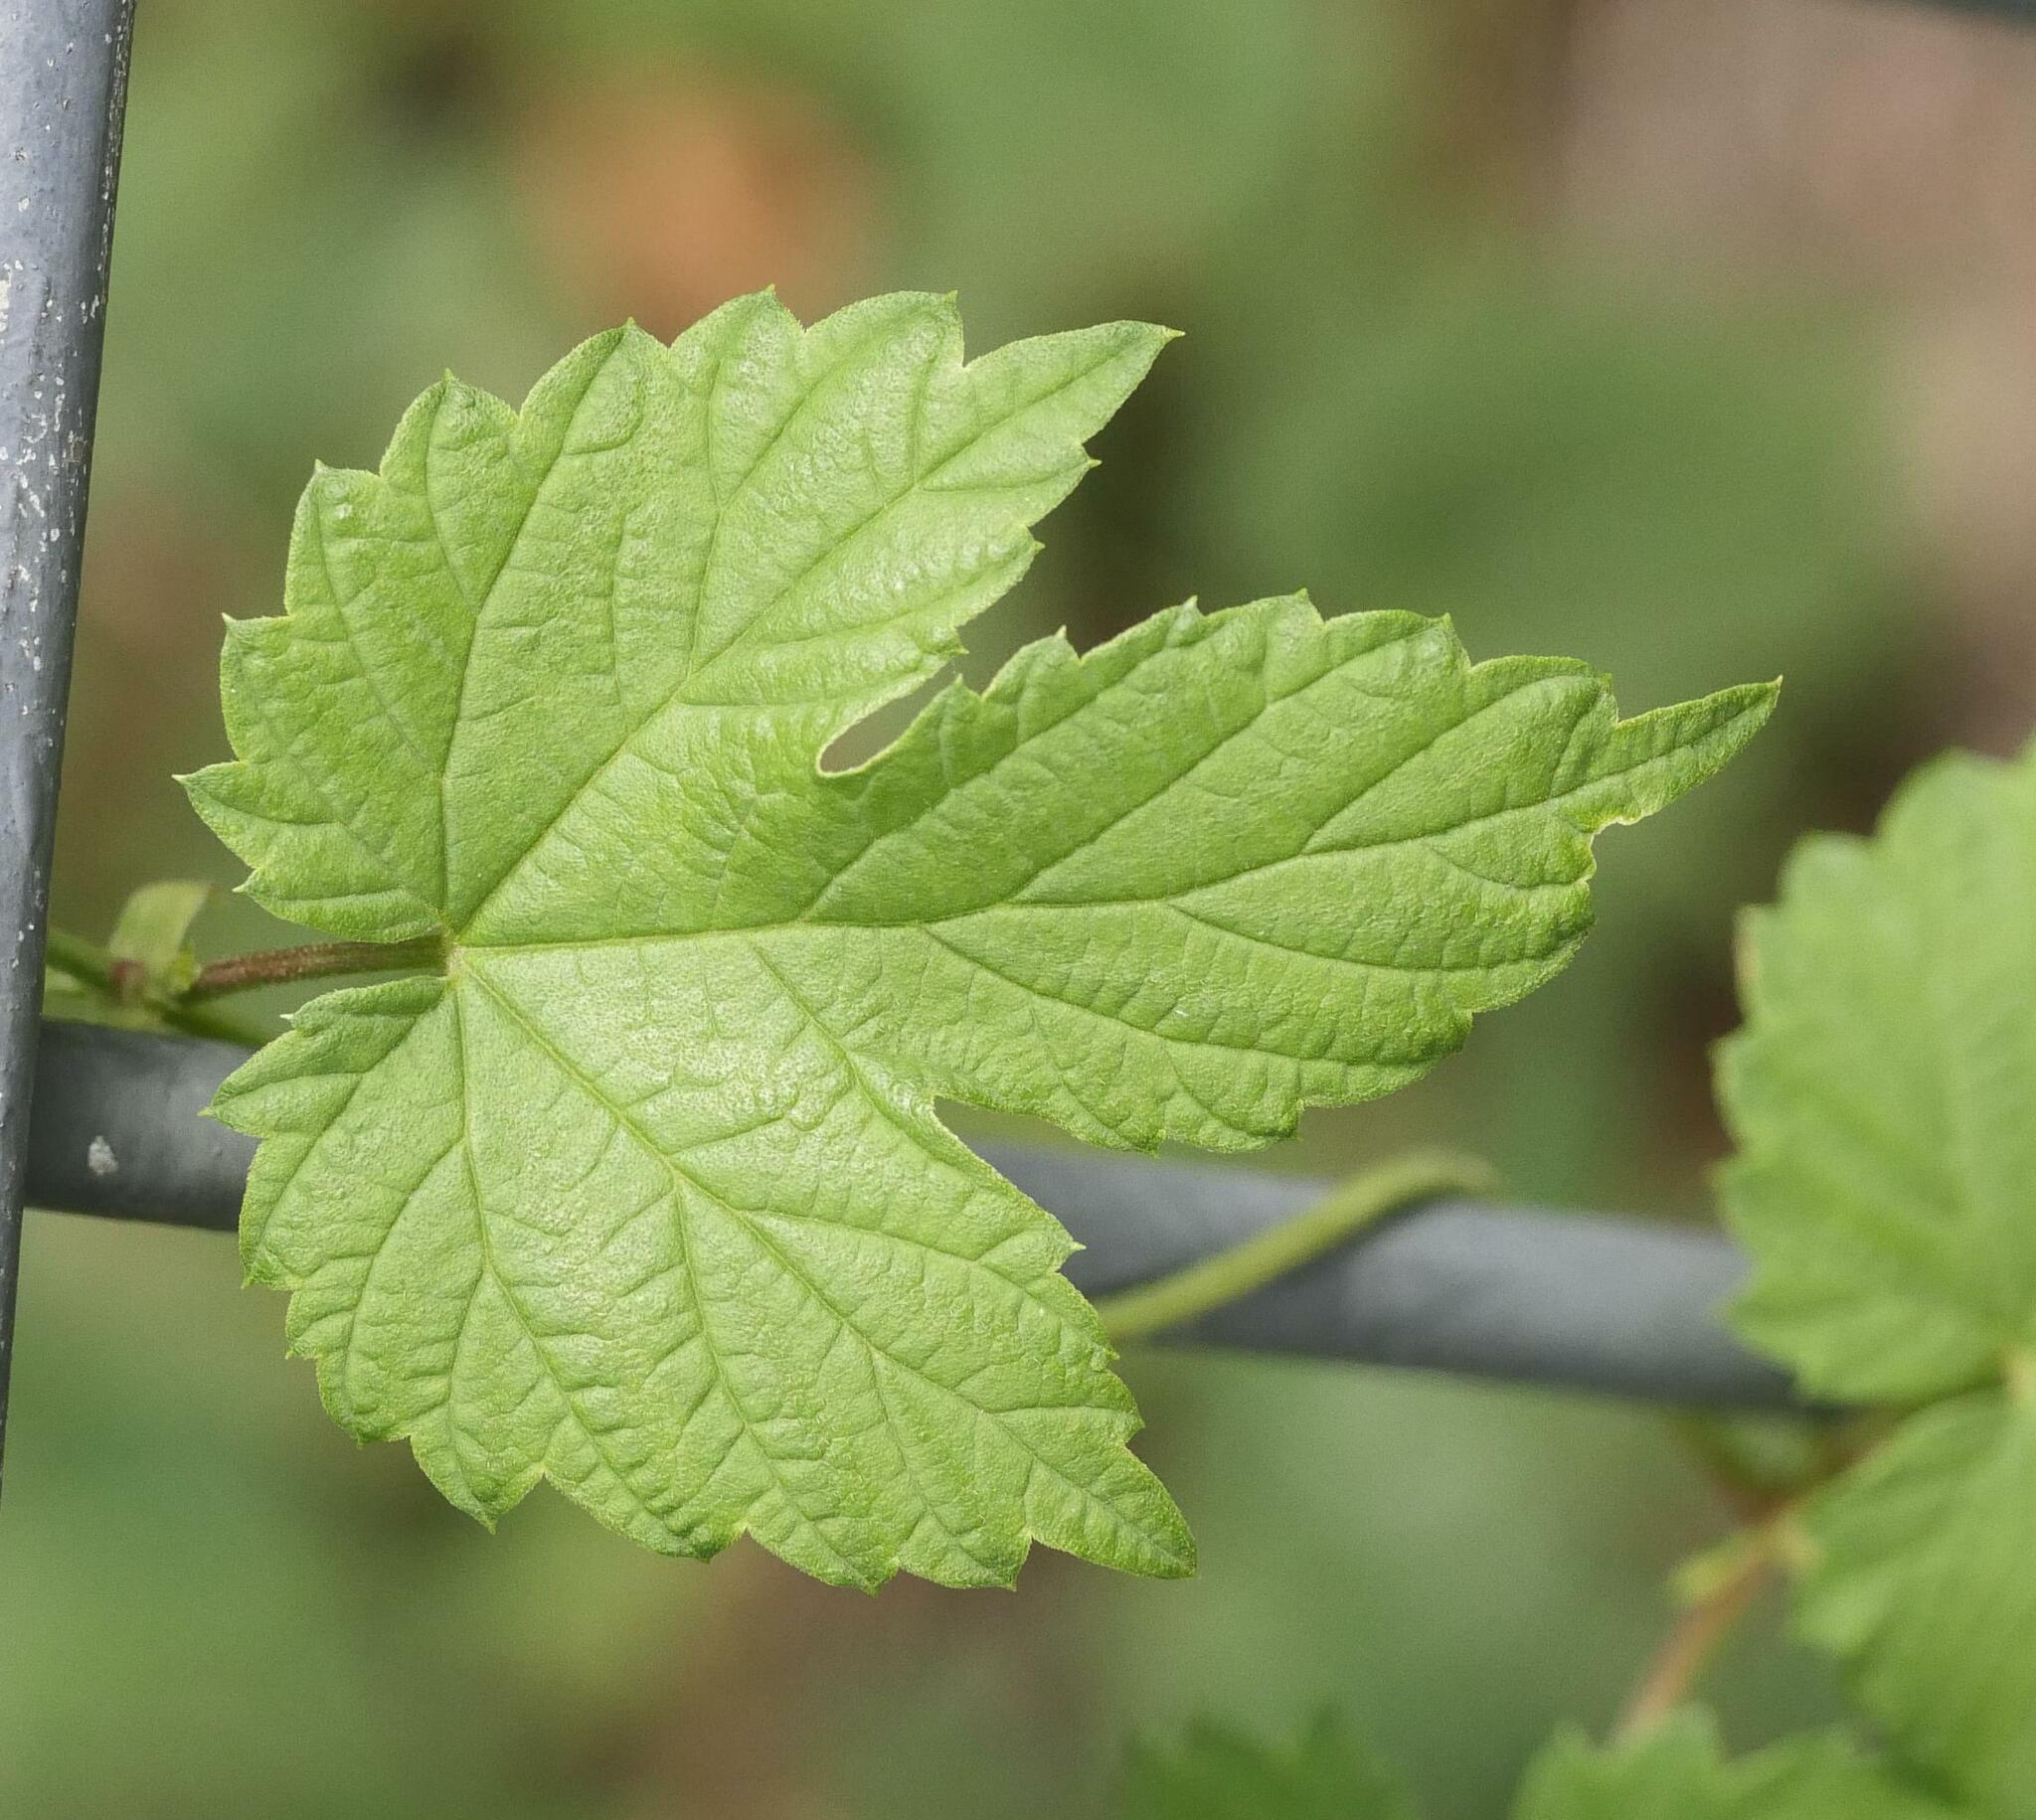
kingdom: Plantae
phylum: Tracheophyta
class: Magnoliopsida
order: Rosales
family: Cannabaceae
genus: Humulus
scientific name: Humulus lupulus
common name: Hop
